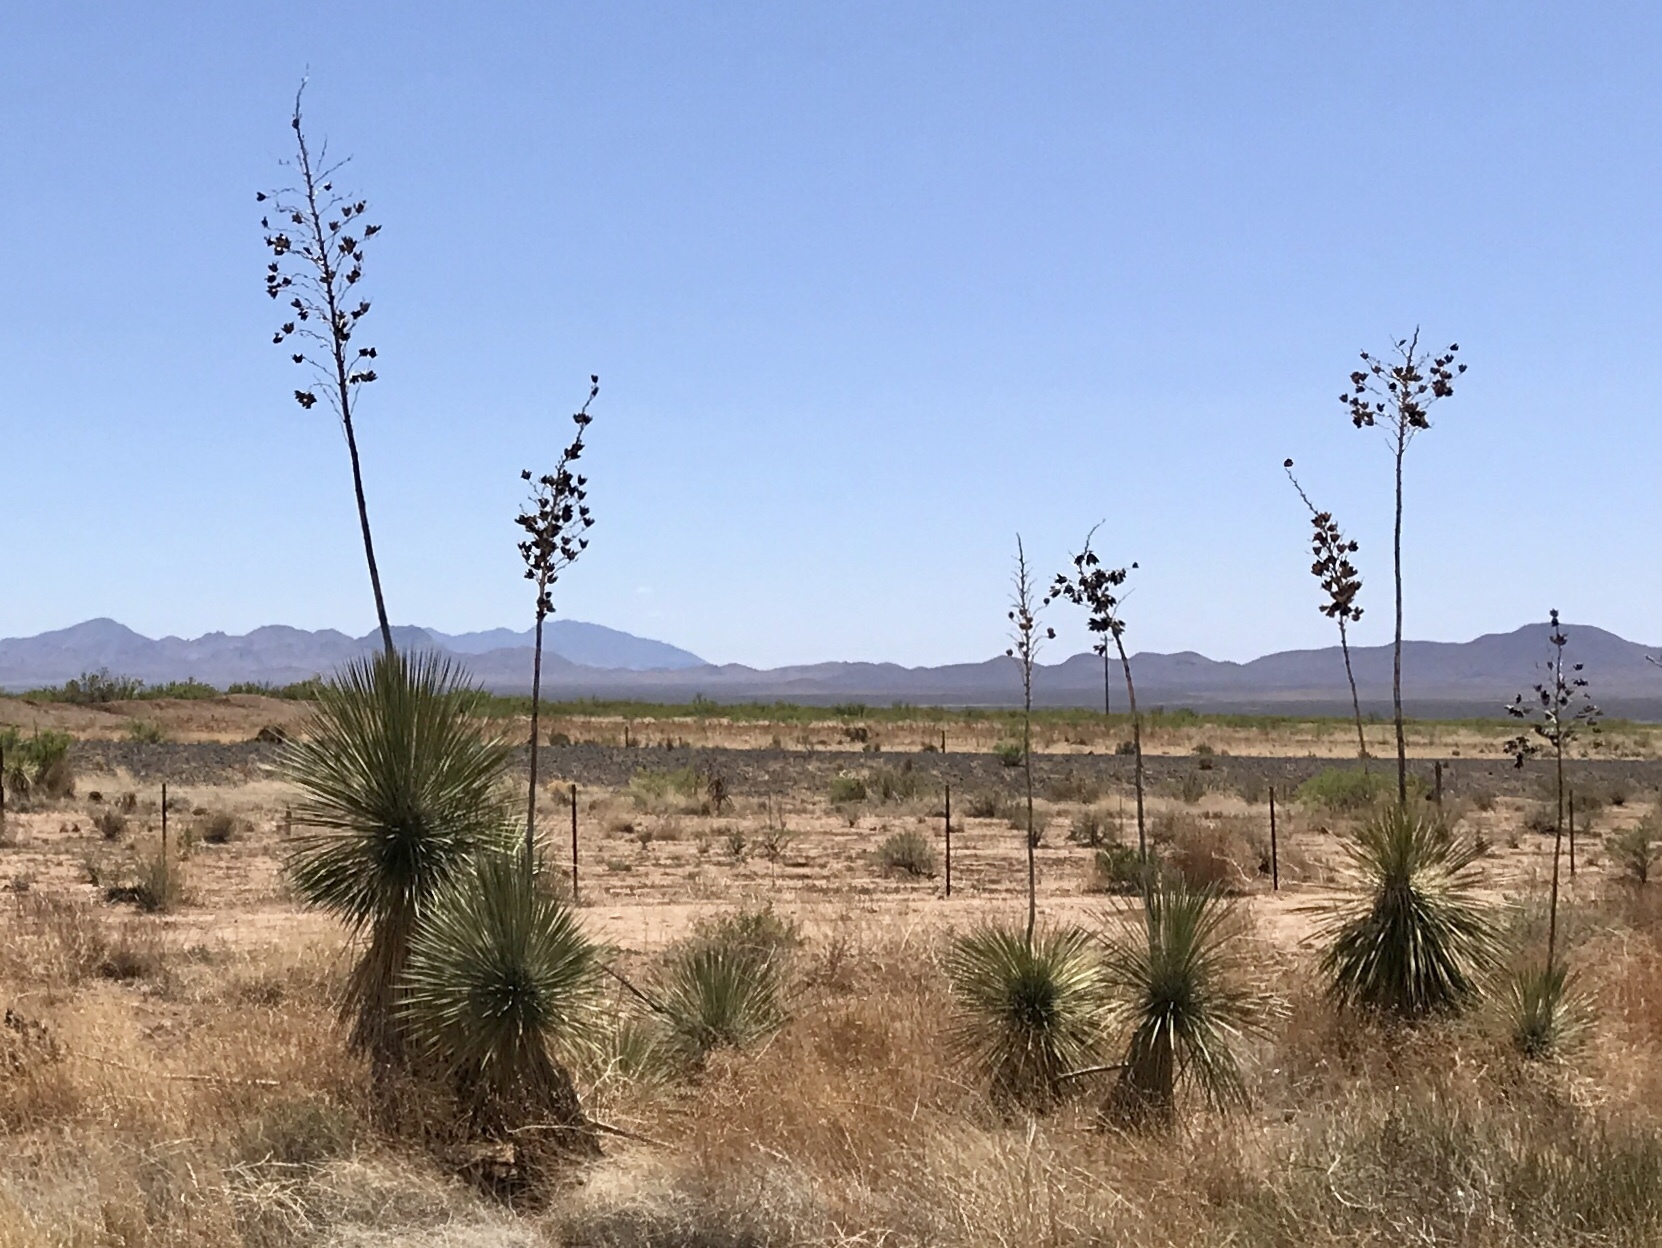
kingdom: Plantae
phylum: Tracheophyta
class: Liliopsida
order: Asparagales
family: Asparagaceae
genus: Yucca
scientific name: Yucca elata
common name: Palmella
